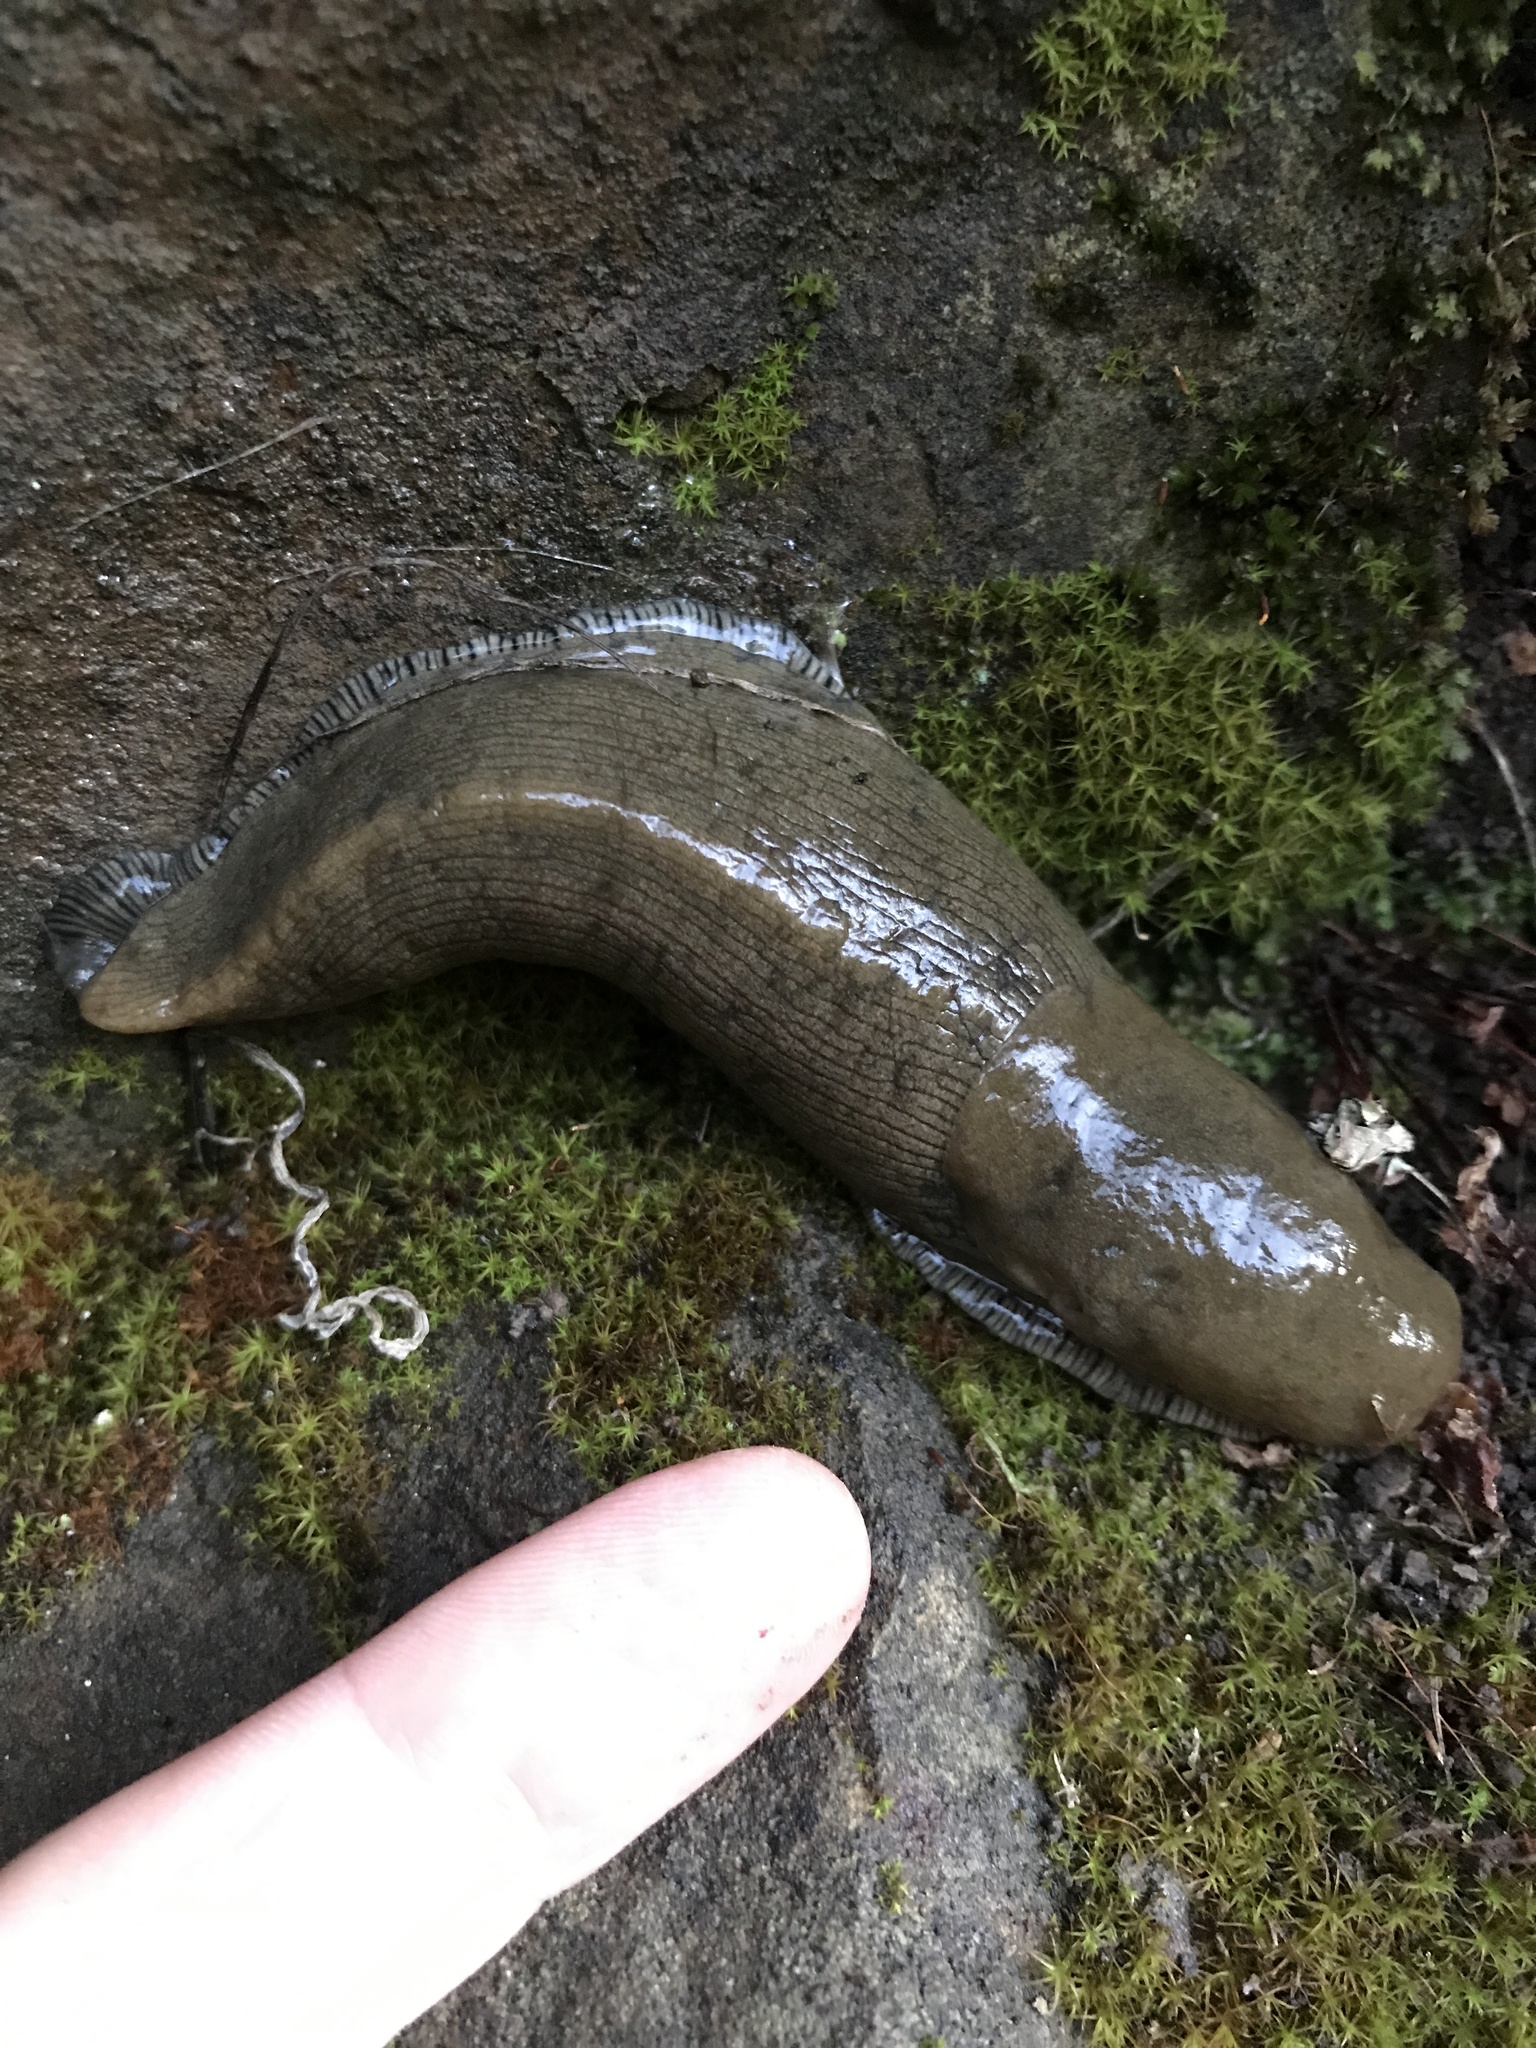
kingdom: Animalia
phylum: Mollusca
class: Gastropoda
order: Stylommatophora
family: Ariolimacidae
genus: Ariolimax
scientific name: Ariolimax buttoni
